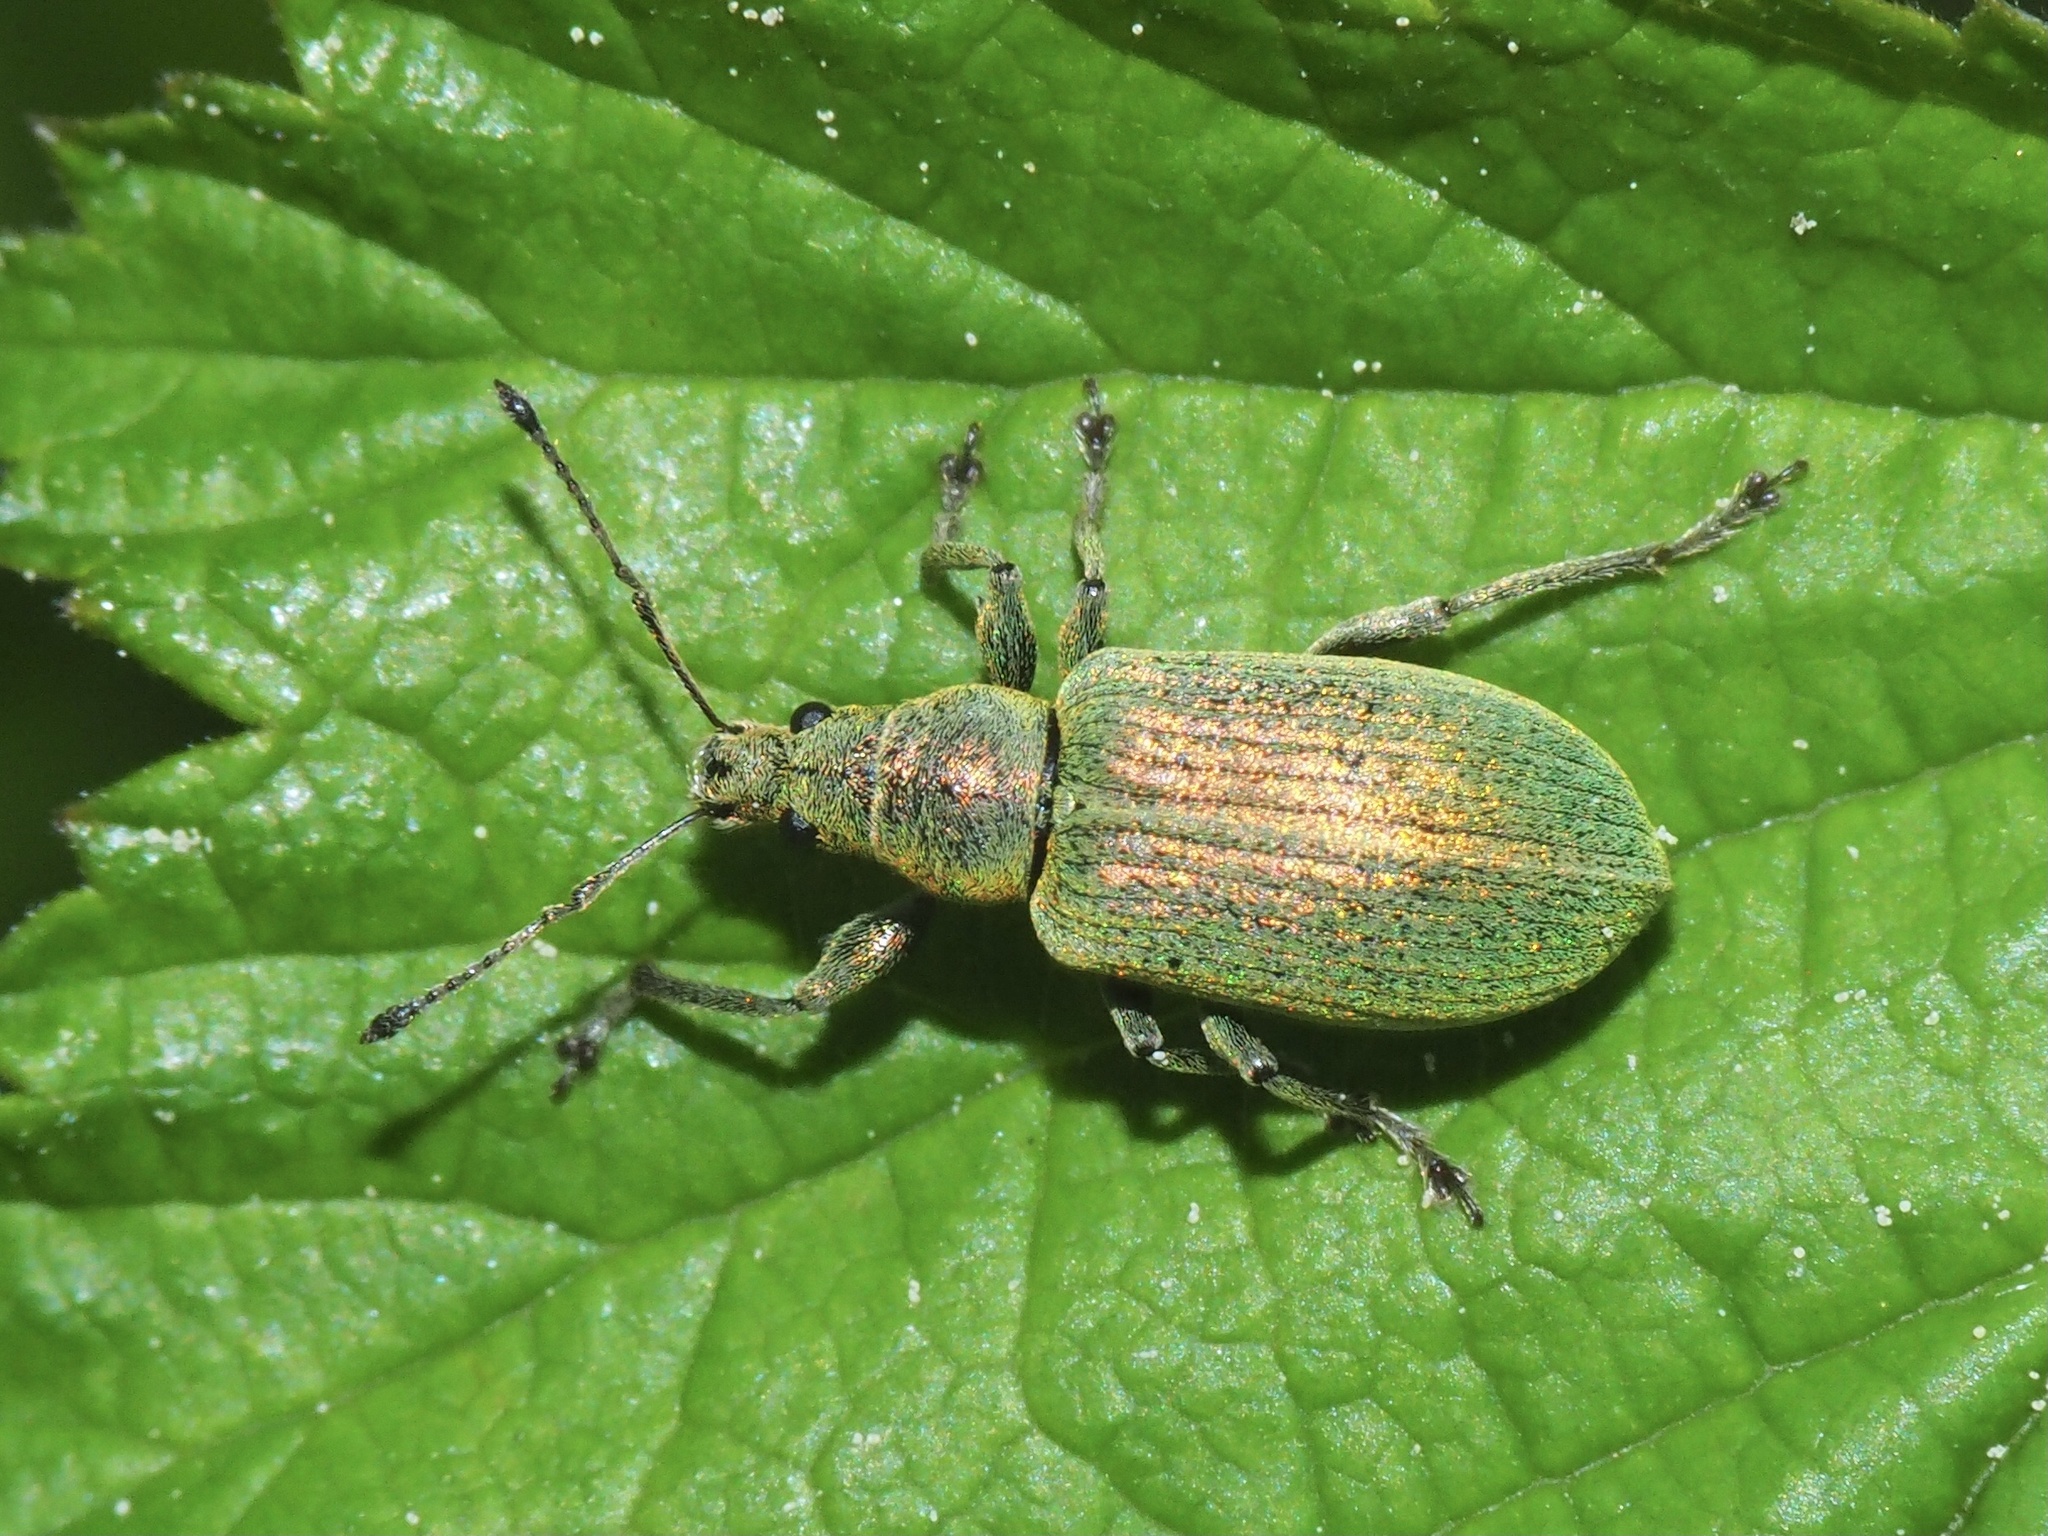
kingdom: Animalia
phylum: Arthropoda
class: Insecta
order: Coleoptera
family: Curculionidae
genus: Phyllobius
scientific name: Phyllobius pomaceus
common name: Green nettle weevil
